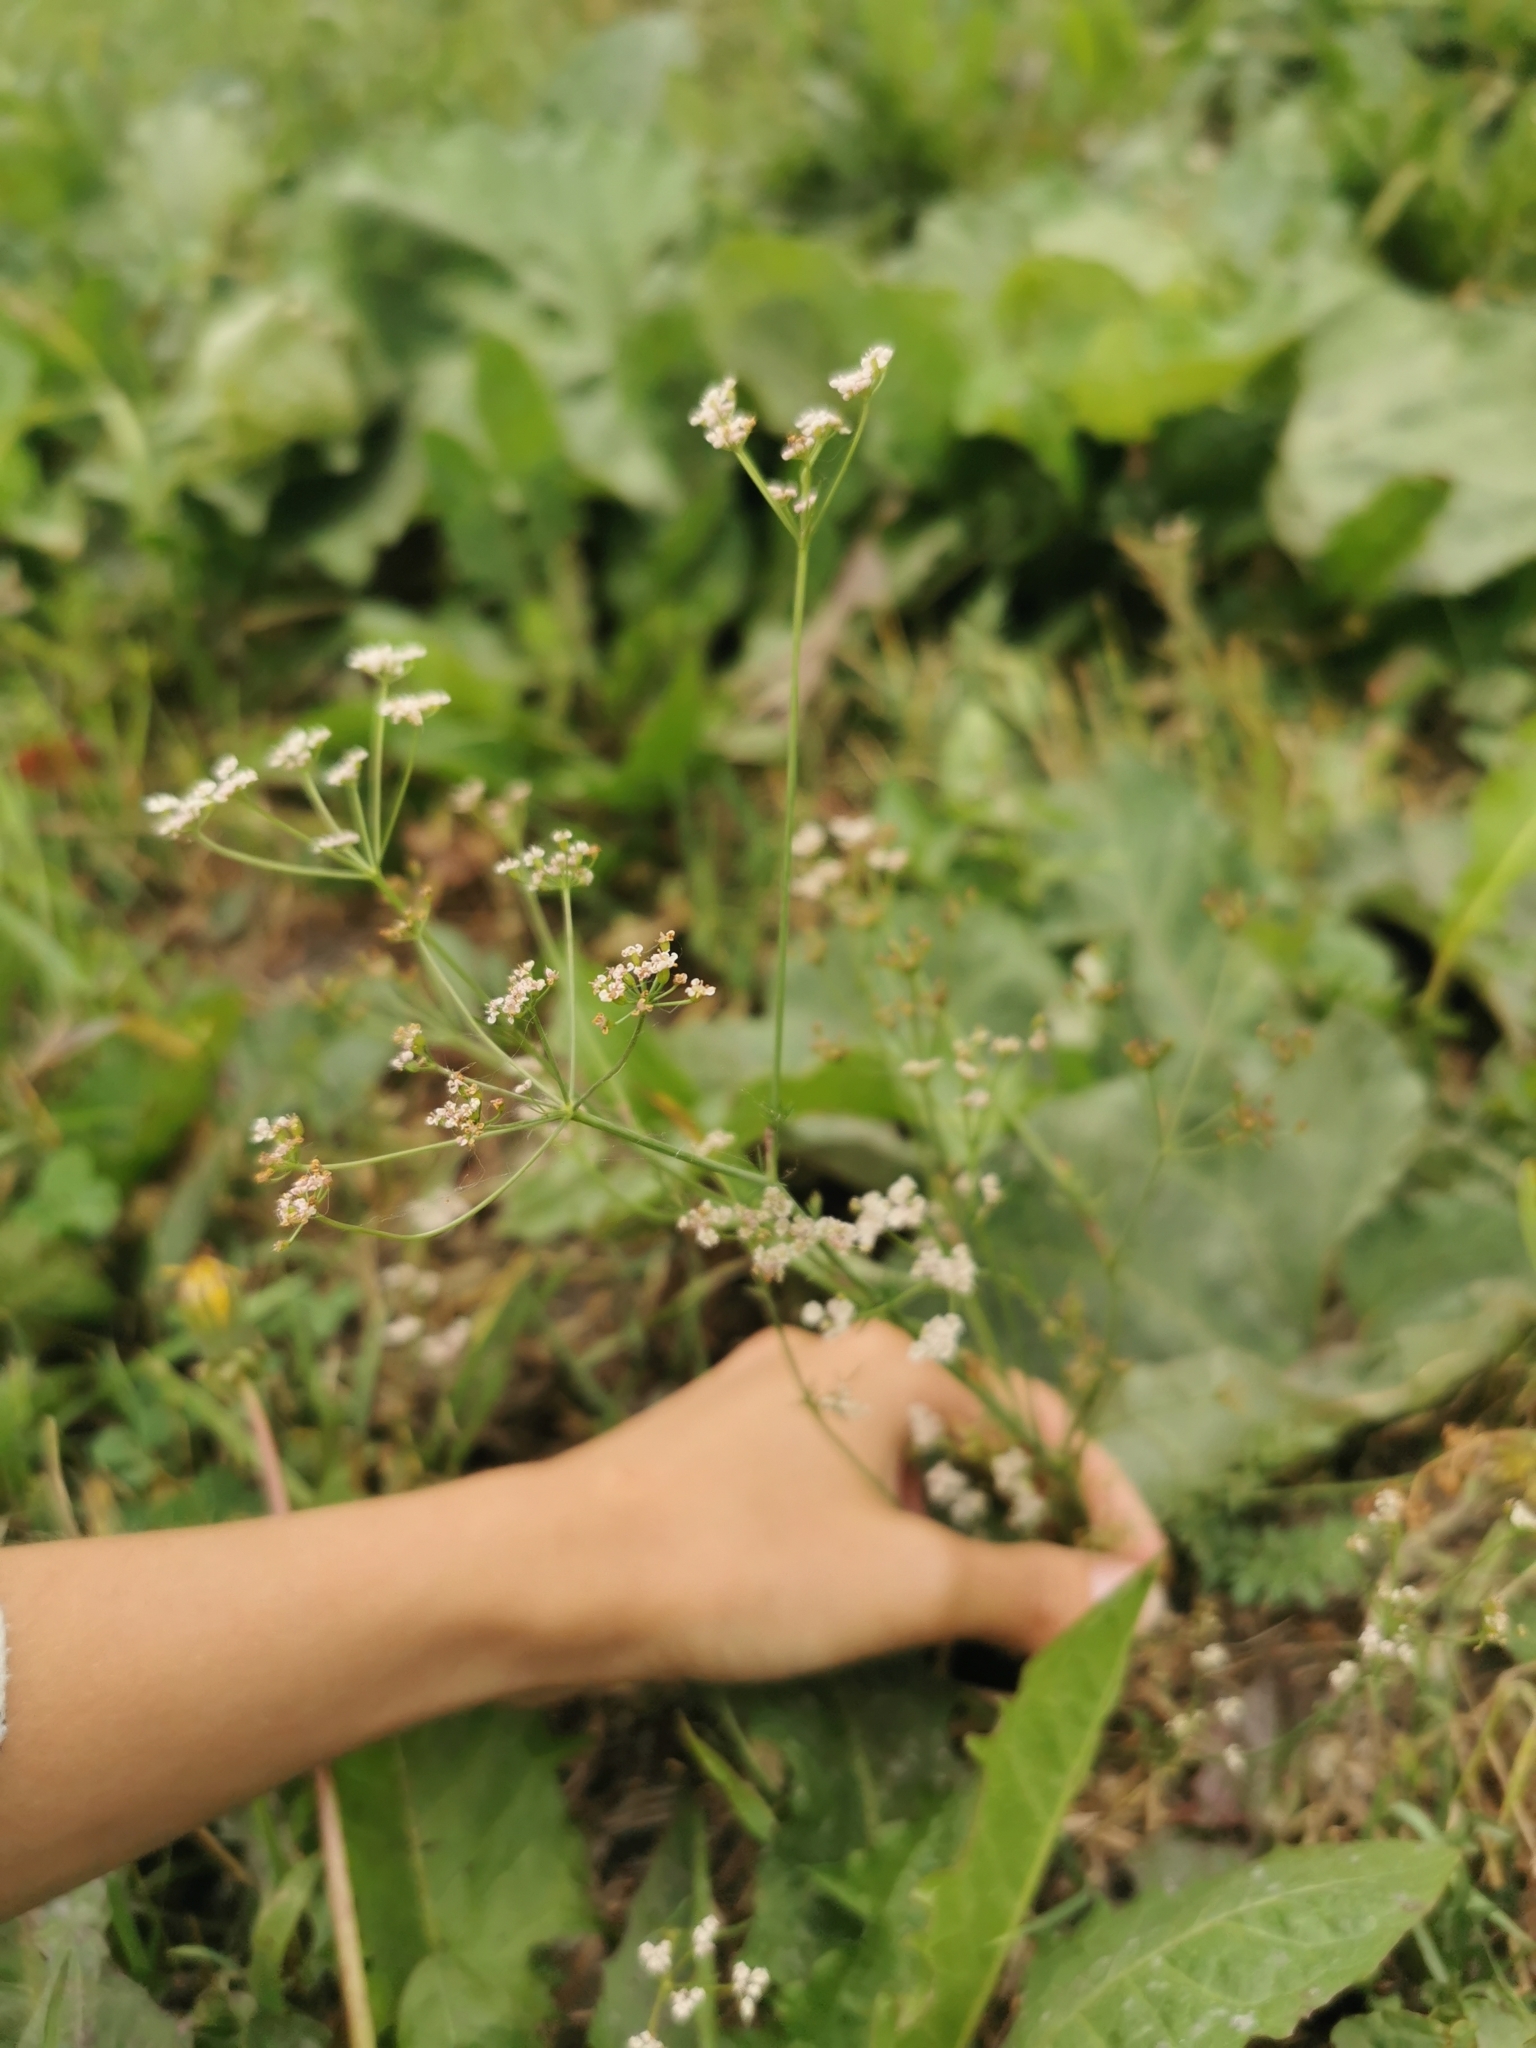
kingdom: Plantae
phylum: Tracheophyta
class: Magnoliopsida
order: Apiales
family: Apiaceae
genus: Carum
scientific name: Carum carvi
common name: Caraway
